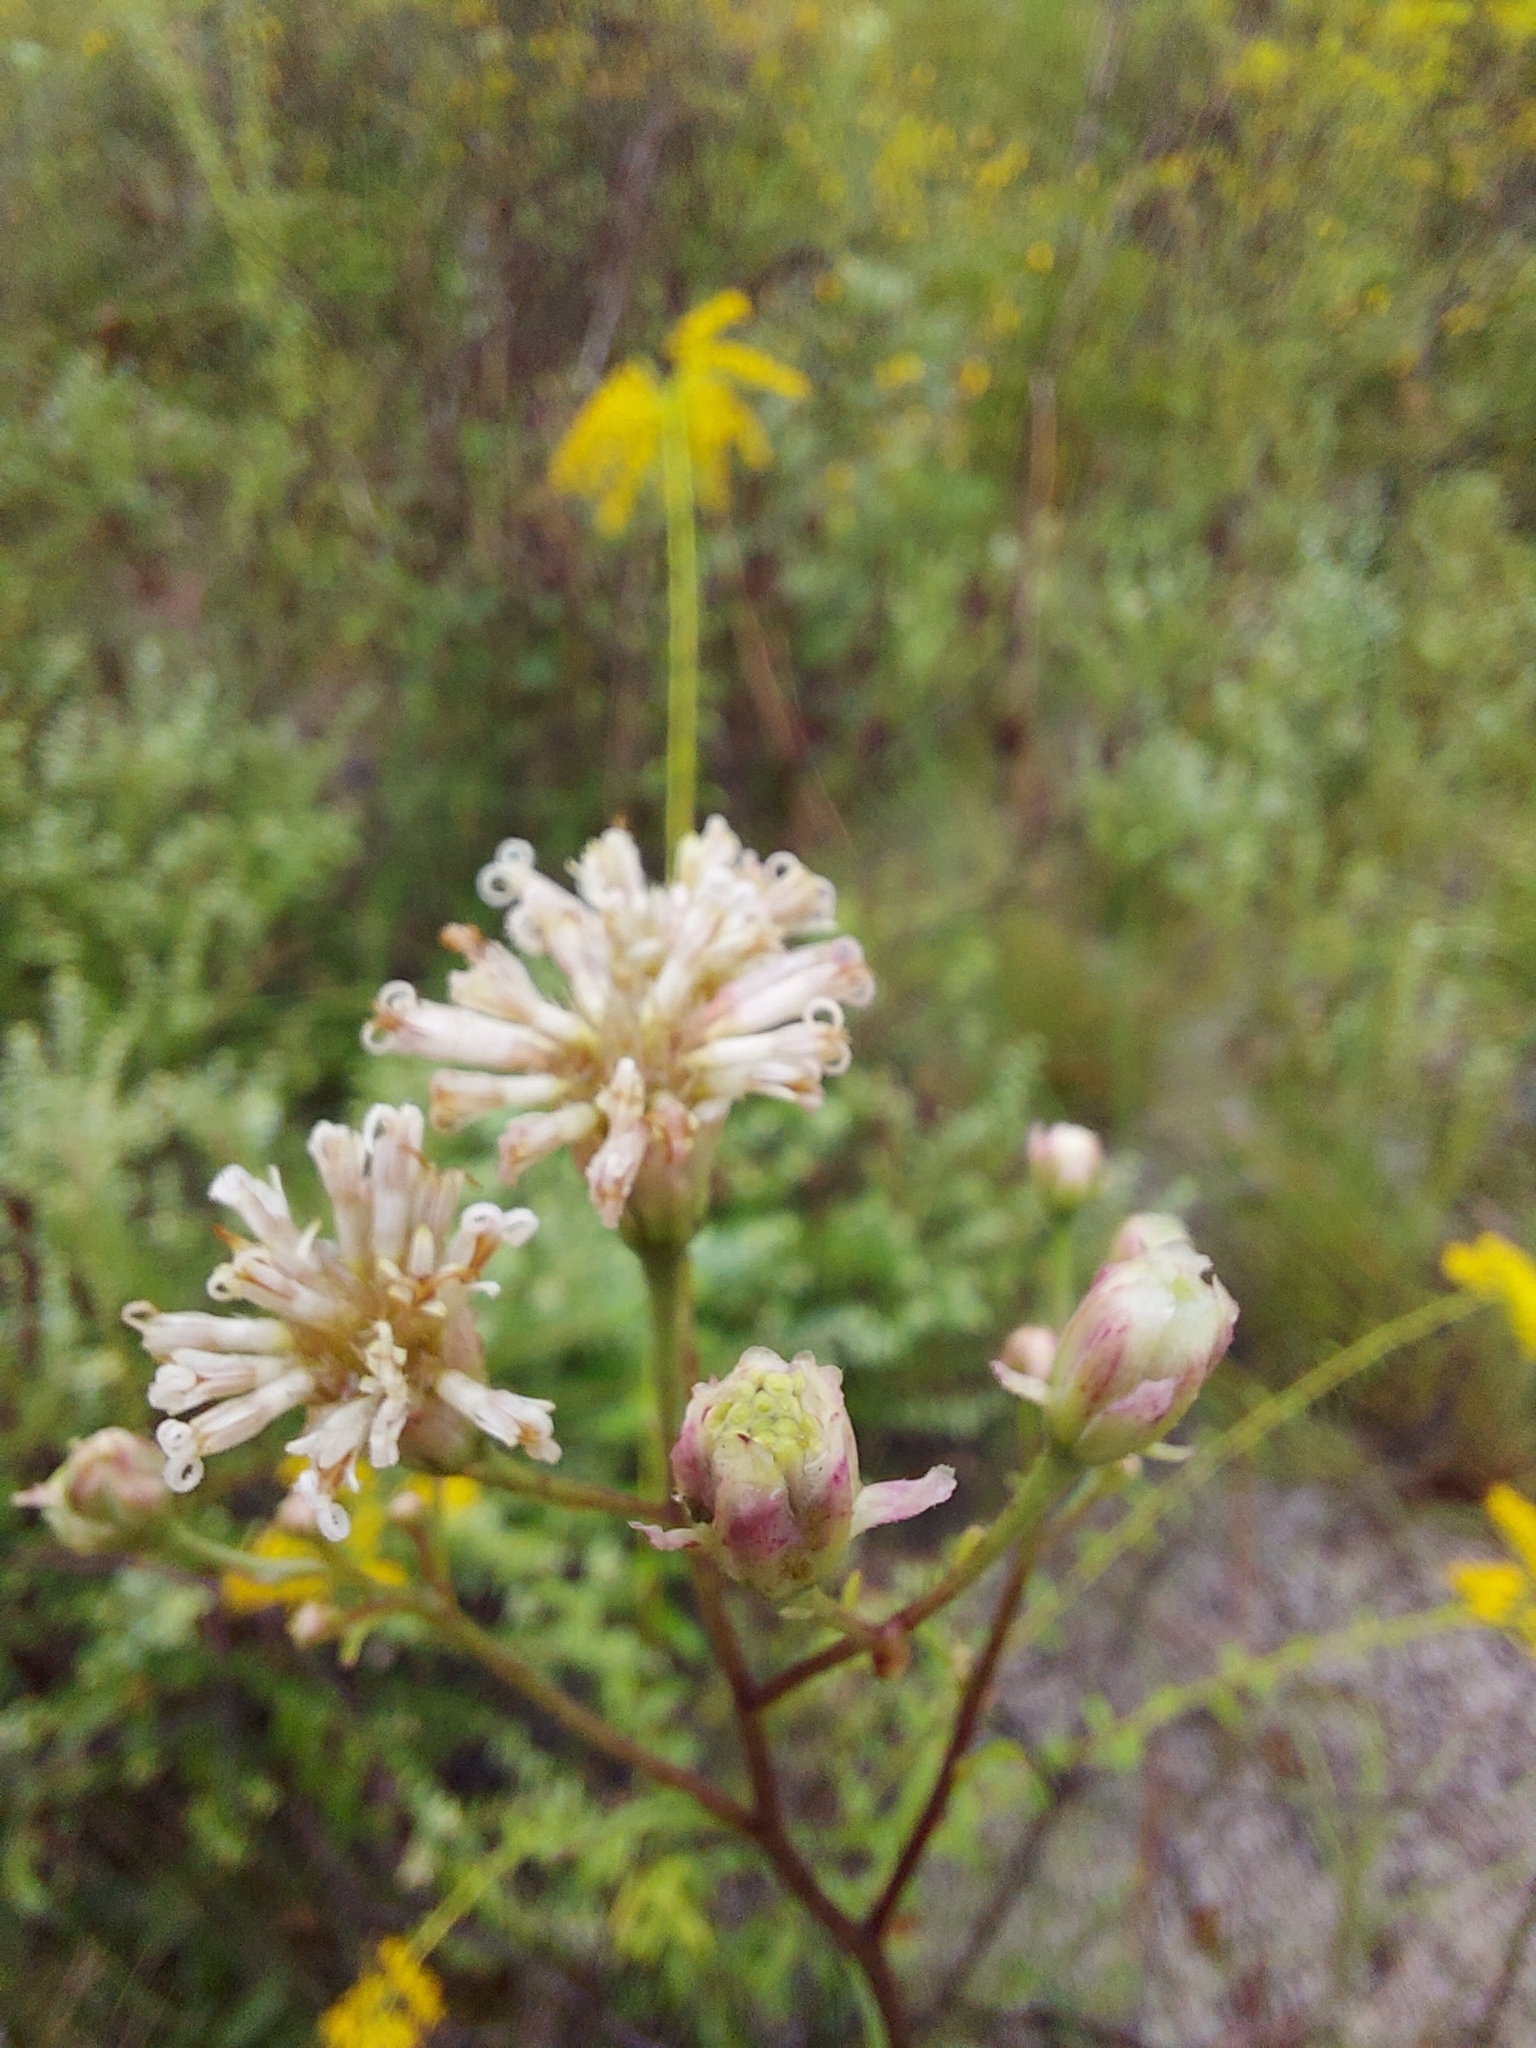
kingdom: Plantae
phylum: Tracheophyta
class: Magnoliopsida
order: Asterales
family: Asteraceae
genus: Palafoxia
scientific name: Palafoxia integrifolia
